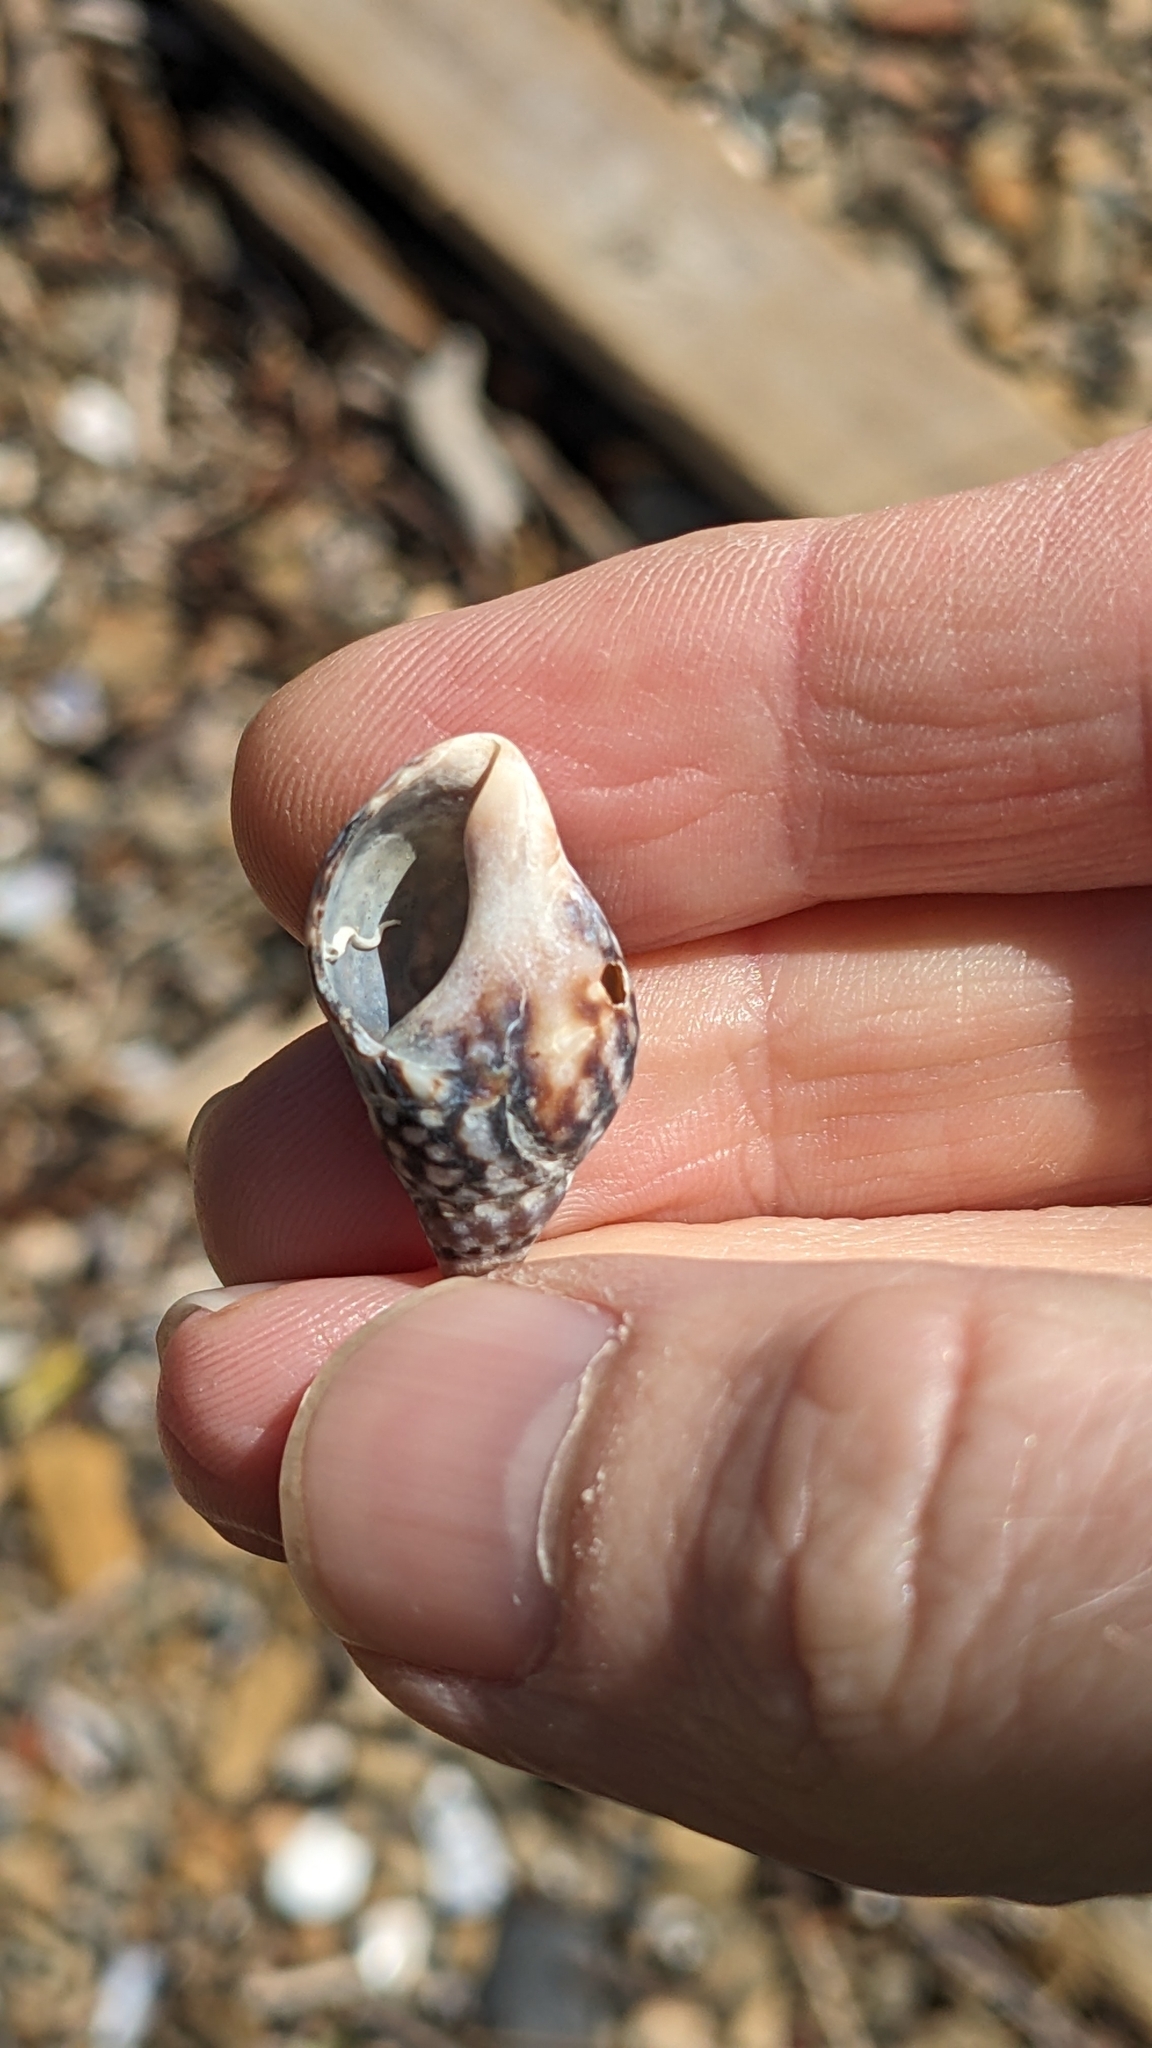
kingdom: Animalia
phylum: Mollusca
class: Gastropoda
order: Neogastropoda
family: Cominellidae
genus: Cominella
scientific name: Cominella maculosa
